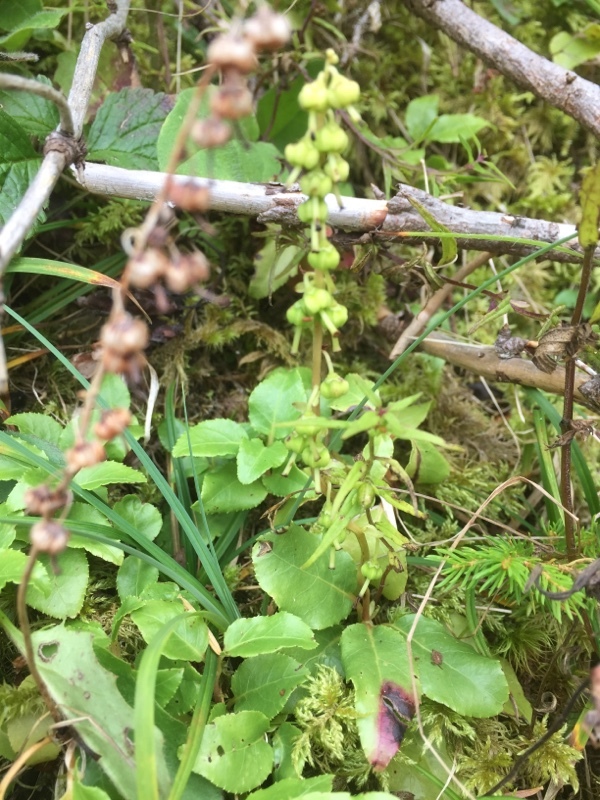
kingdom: Plantae
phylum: Tracheophyta
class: Magnoliopsida
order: Ericales
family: Ericaceae
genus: Orthilia
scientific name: Orthilia secunda
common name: One-sided orthilia
